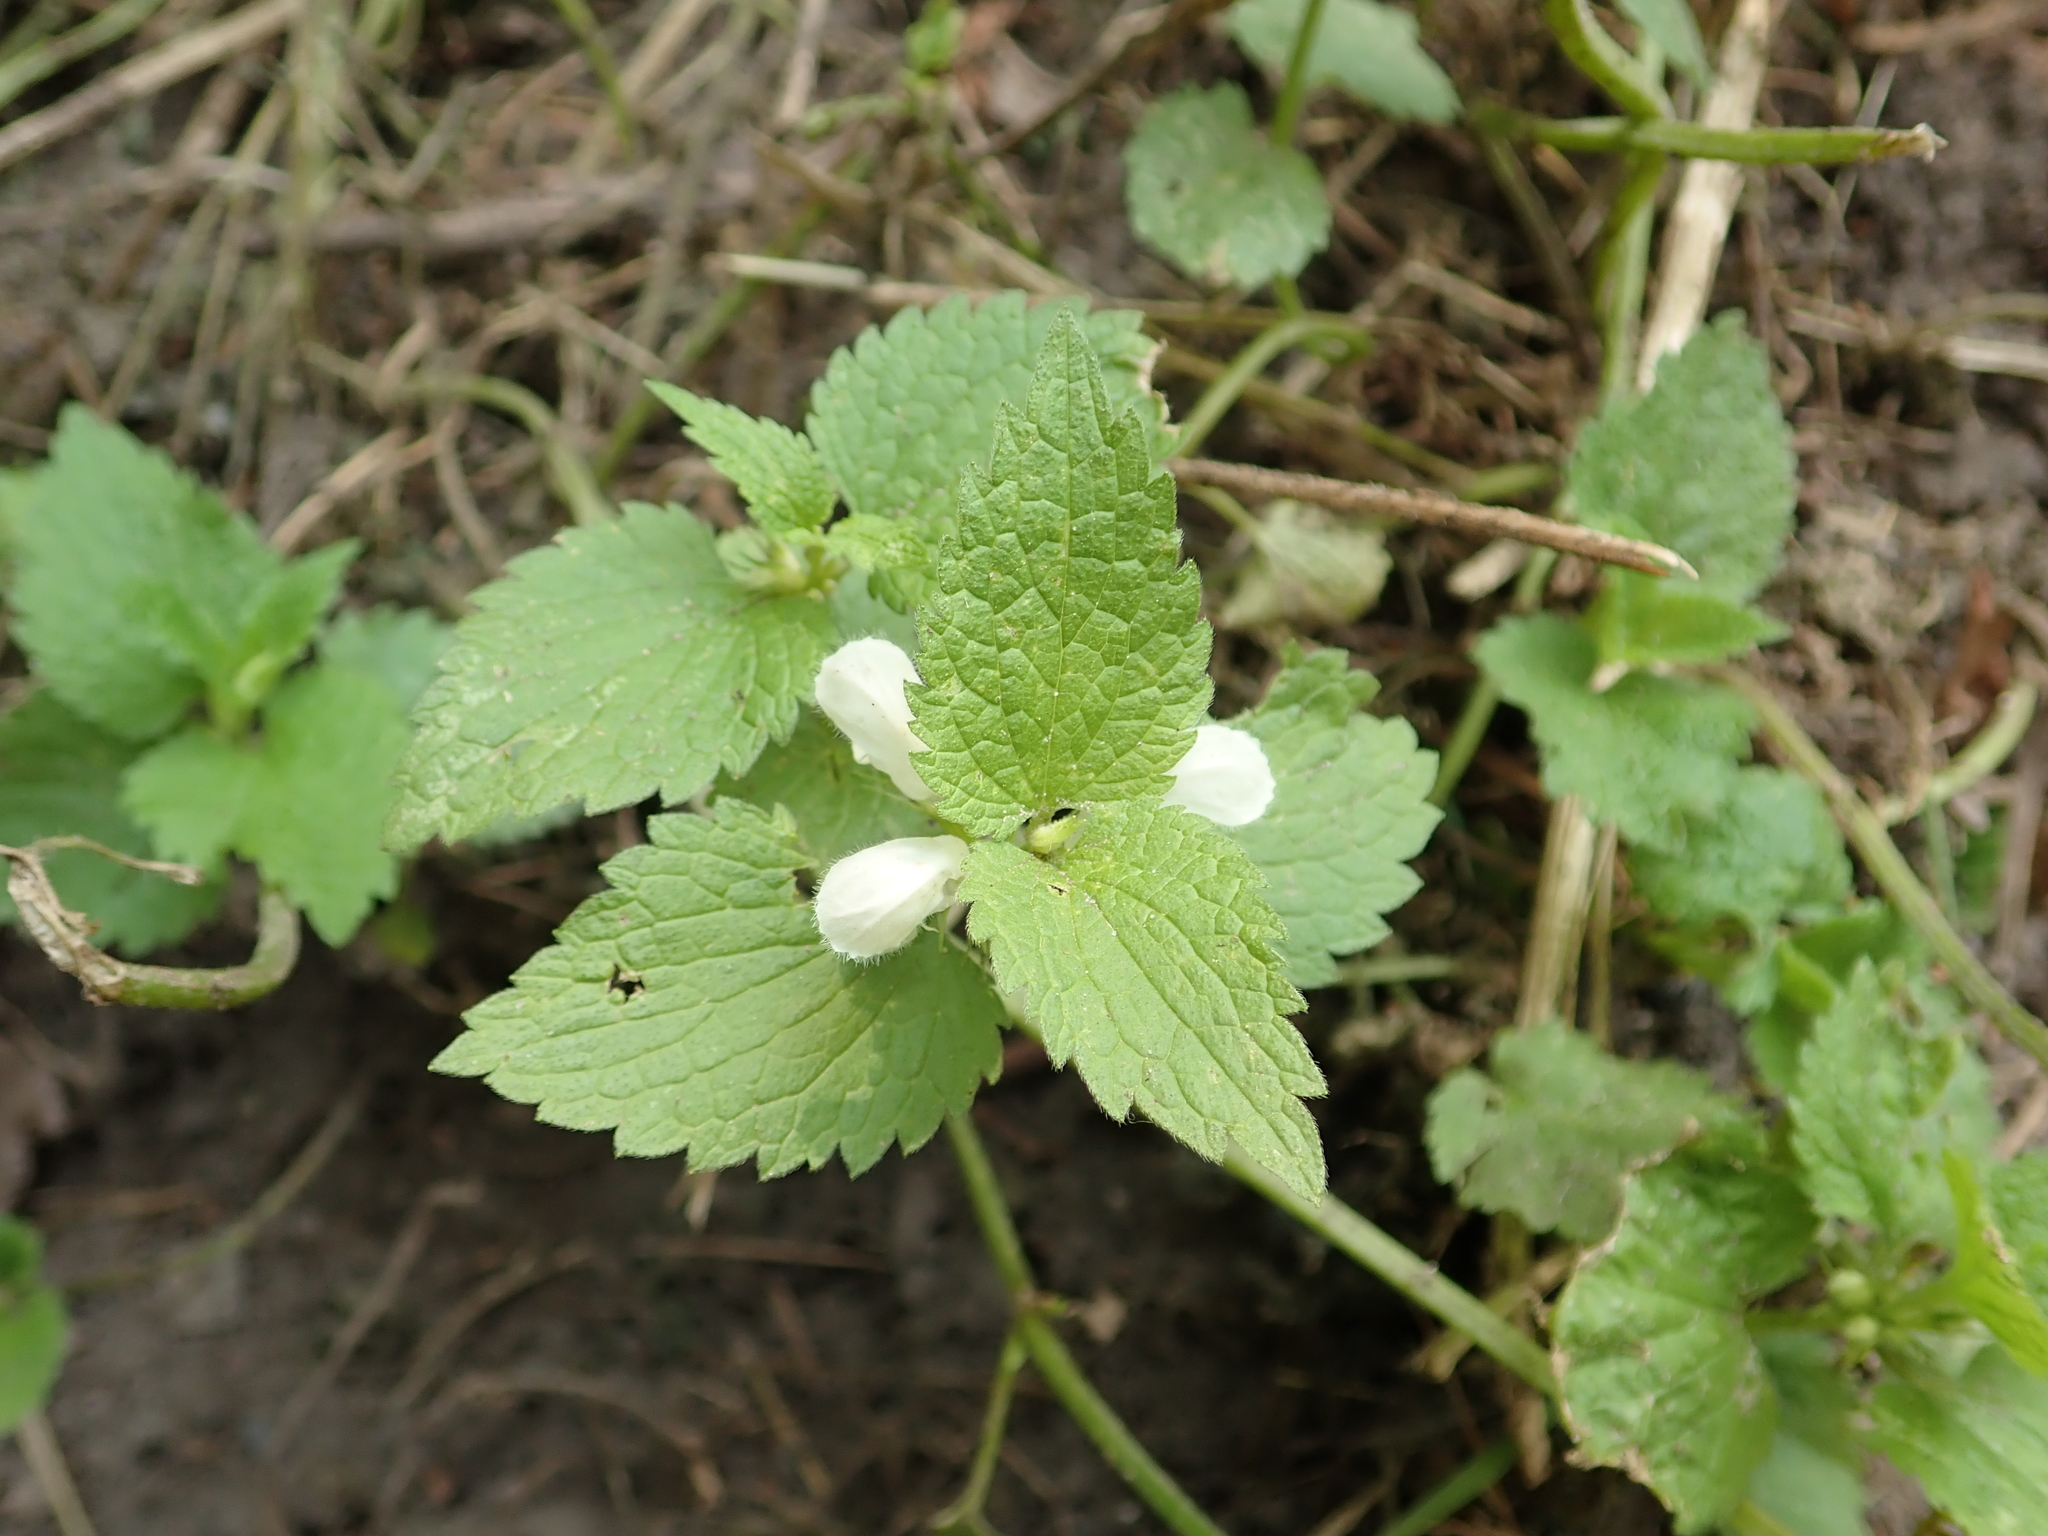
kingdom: Plantae
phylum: Tracheophyta
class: Magnoliopsida
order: Lamiales
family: Lamiaceae
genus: Lamium
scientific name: Lamium album
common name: White dead-nettle
